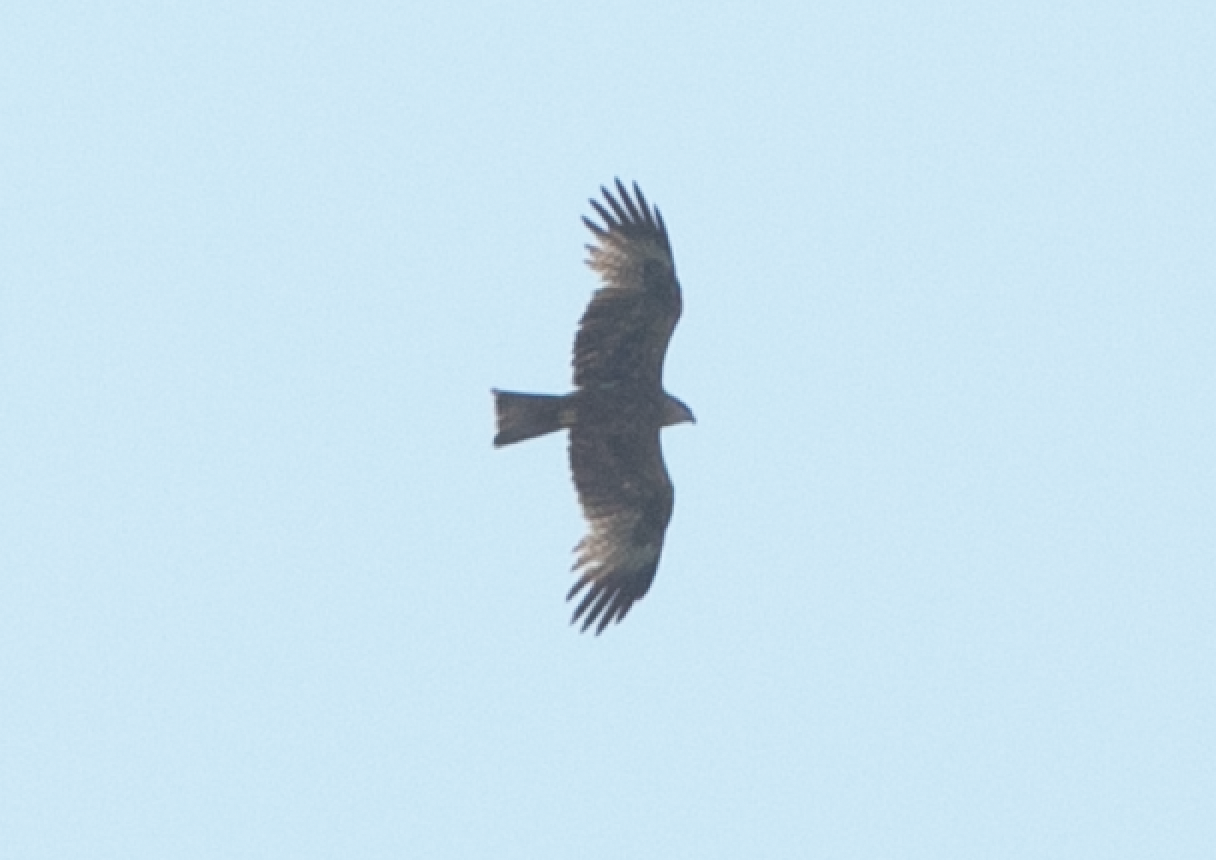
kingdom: Animalia
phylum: Chordata
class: Aves
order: Accipitriformes
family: Accipitridae
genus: Milvus
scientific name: Milvus migrans
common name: Black kite
